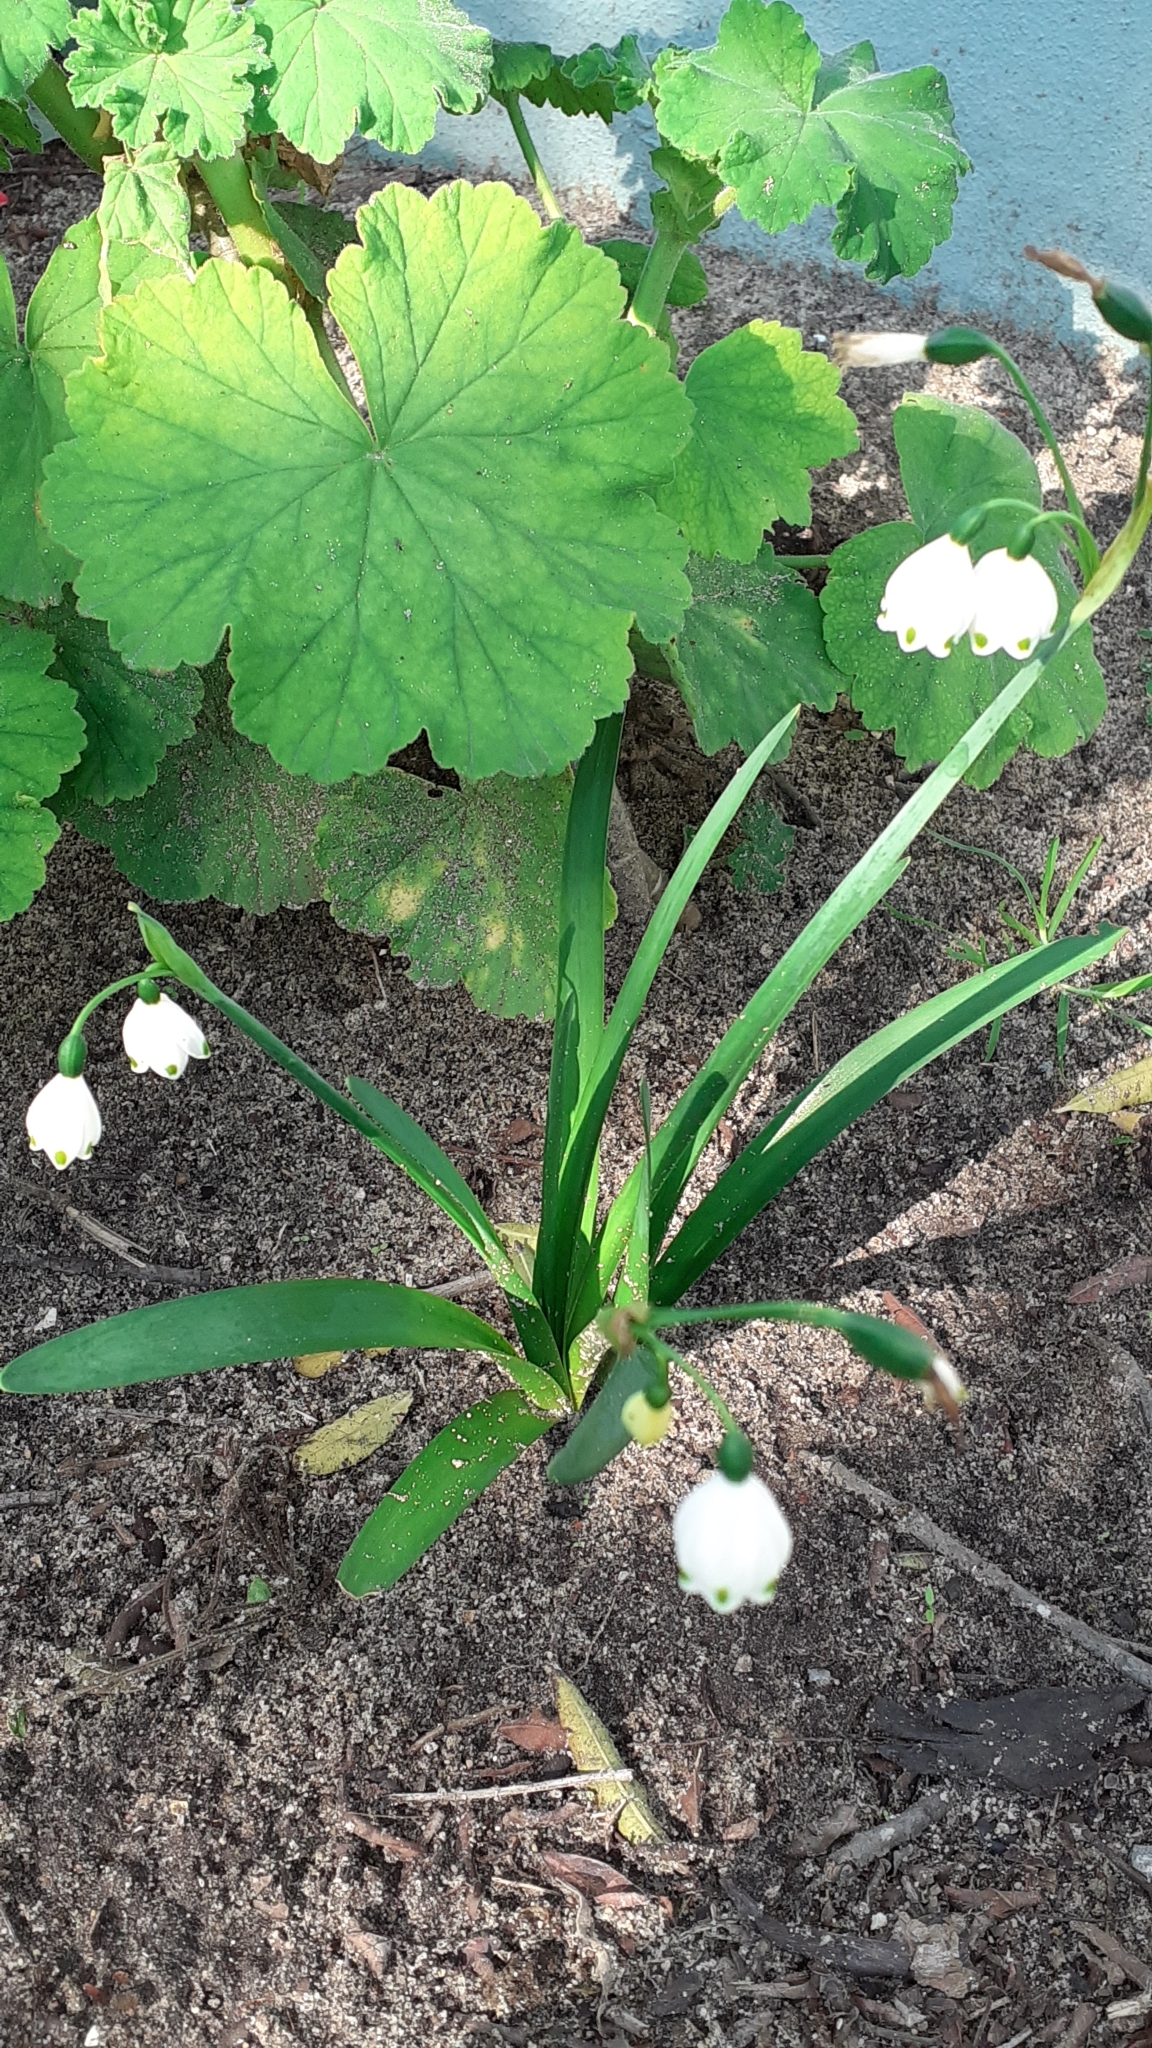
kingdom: Plantae
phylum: Tracheophyta
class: Liliopsida
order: Asparagales
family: Amaryllidaceae
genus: Leucojum
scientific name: Leucojum aestivum
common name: Summer snowflake
